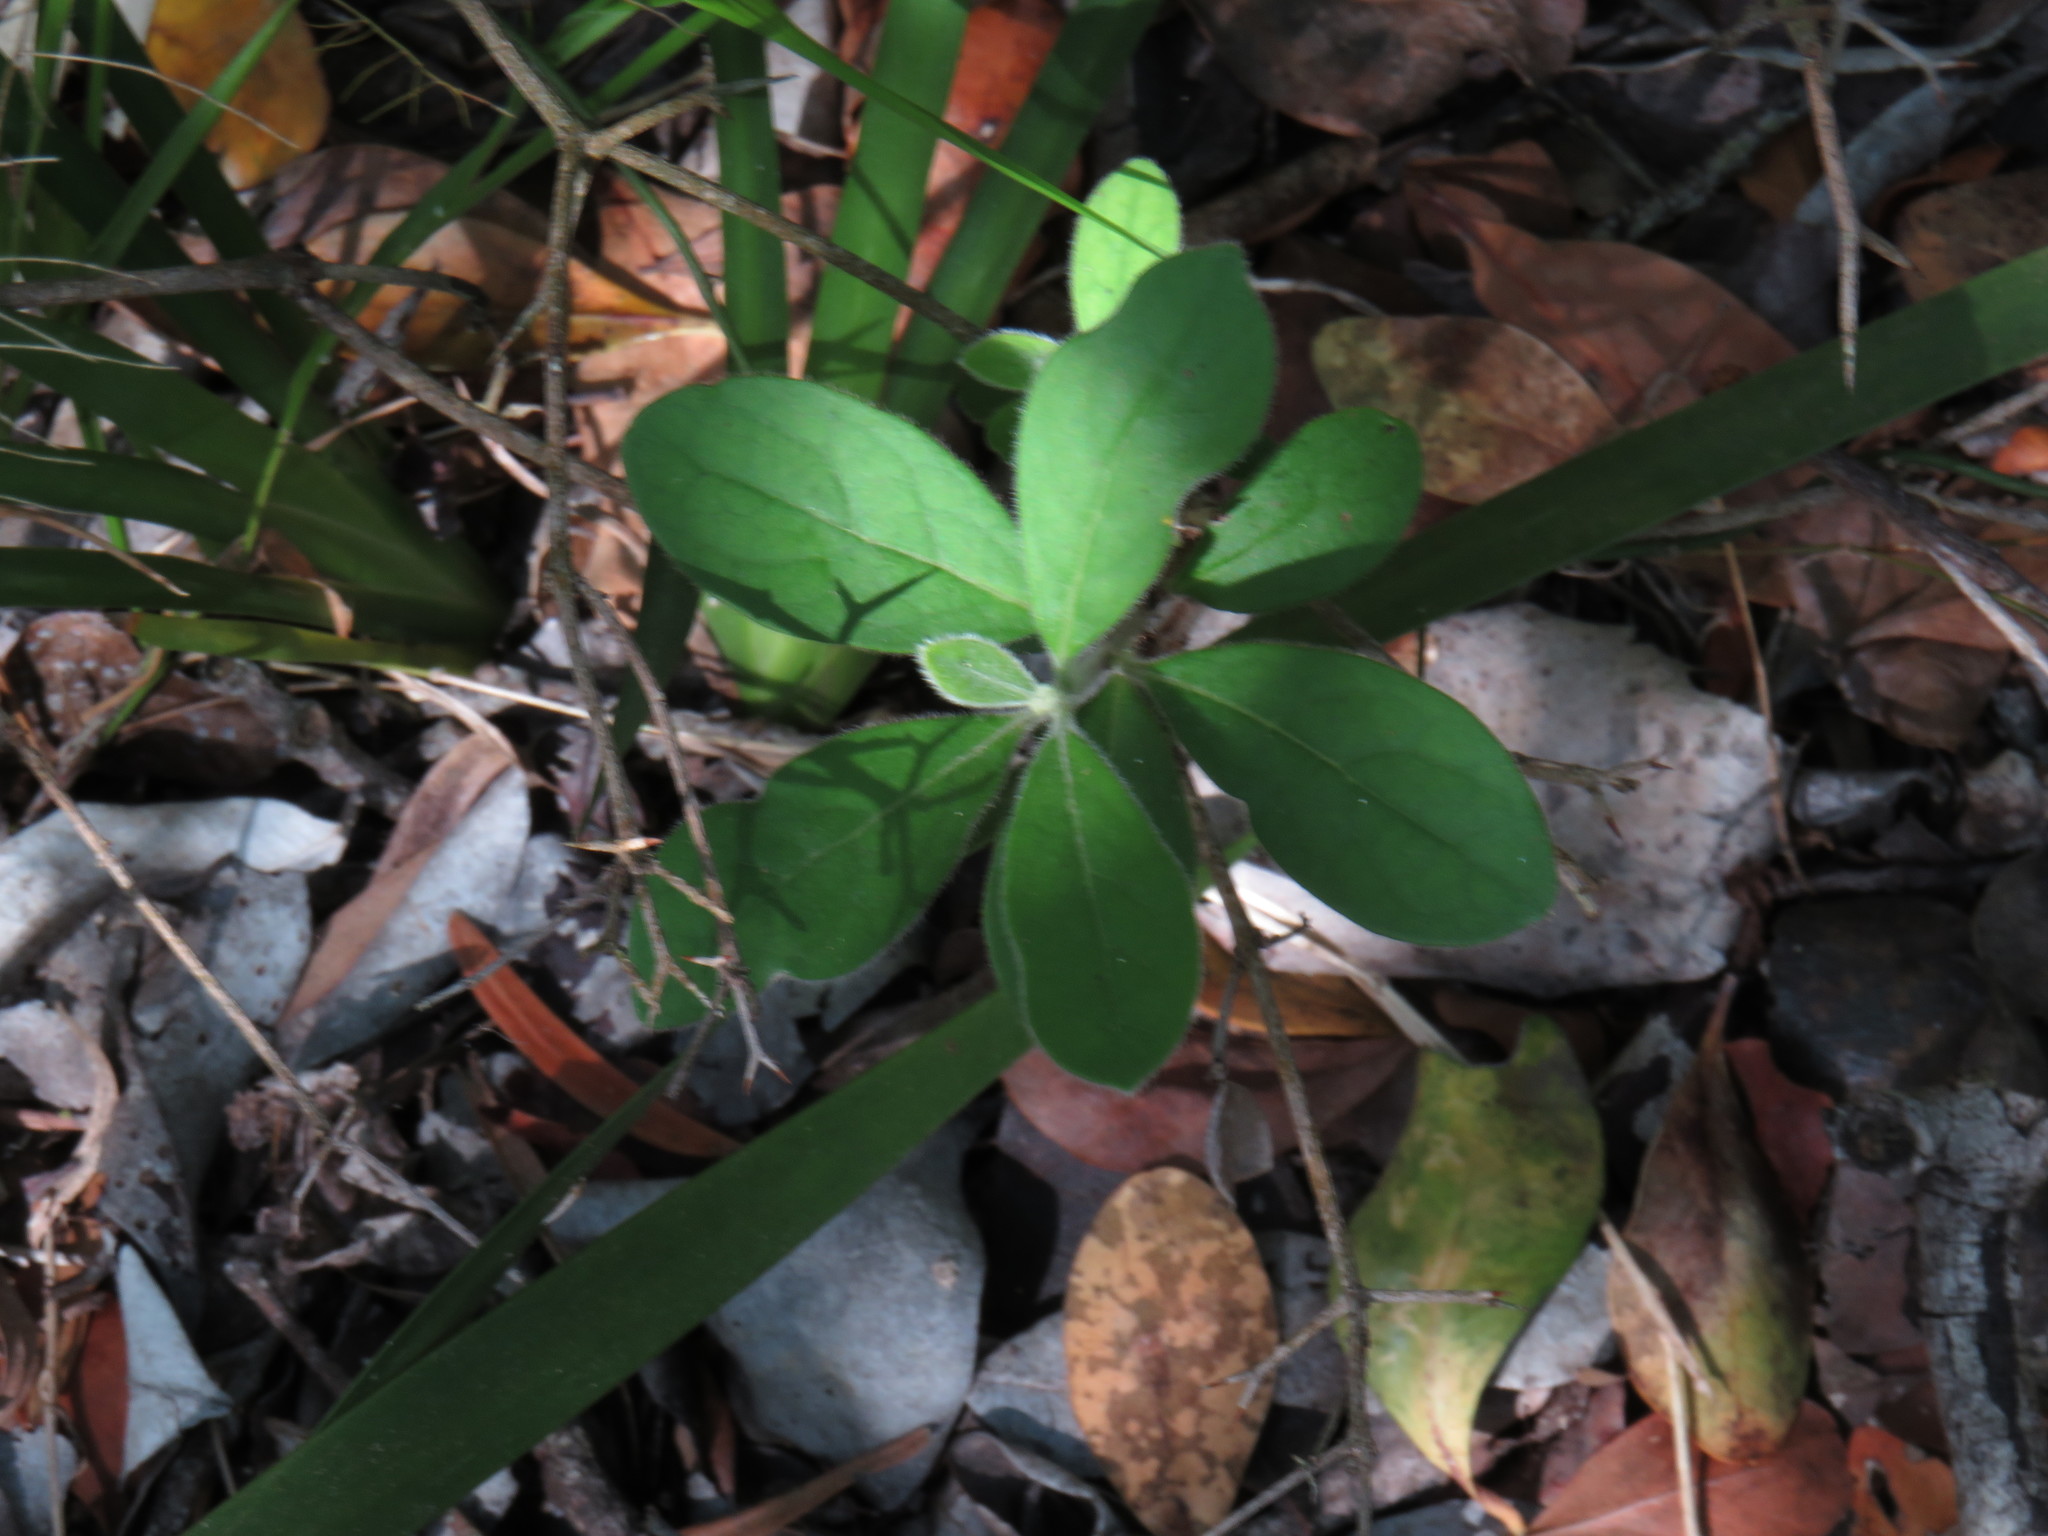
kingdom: Plantae
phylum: Tracheophyta
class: Magnoliopsida
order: Ericales
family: Ebenaceae
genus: Diospyros
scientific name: Diospyros dichrophylla
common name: Common star-apple
